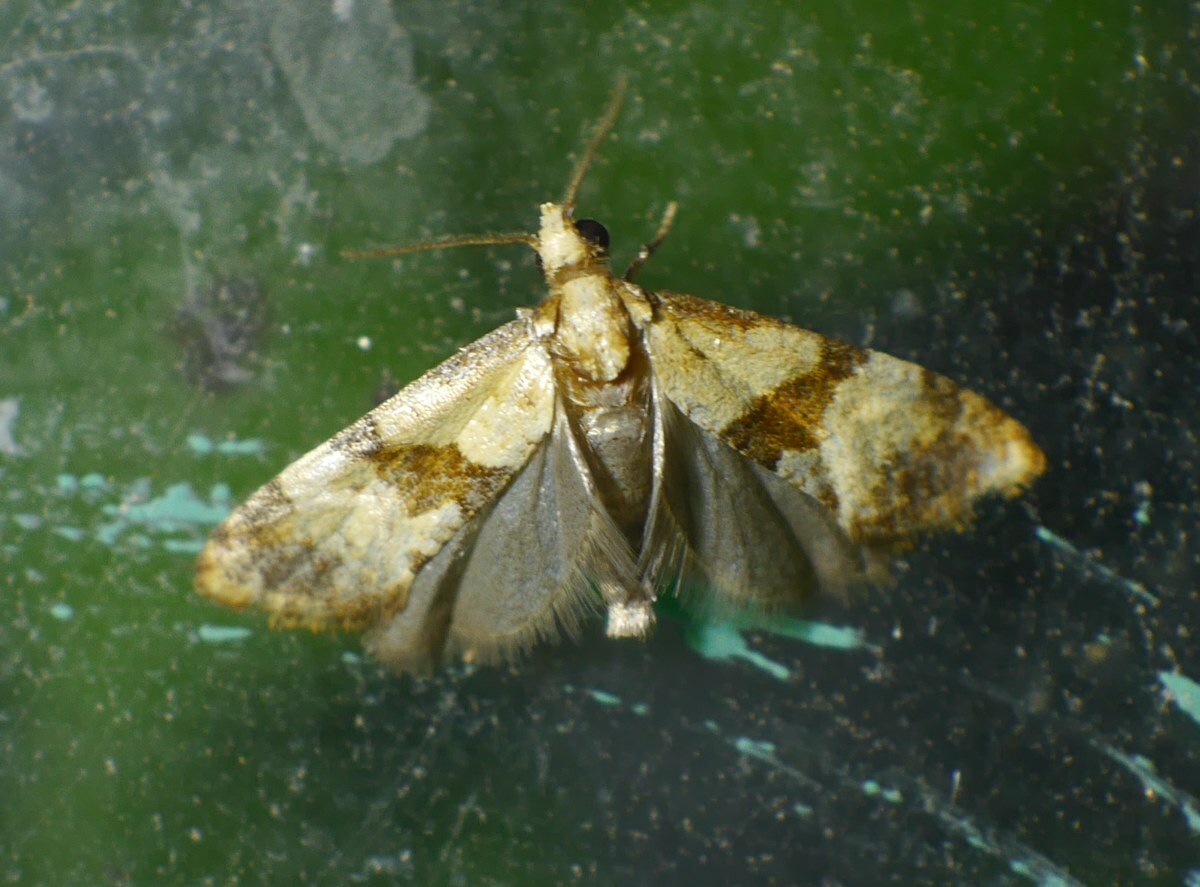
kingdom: Animalia
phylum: Arthropoda
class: Insecta
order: Lepidoptera
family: Tortricidae
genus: Phalonidia
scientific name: Phalonidia contractana
